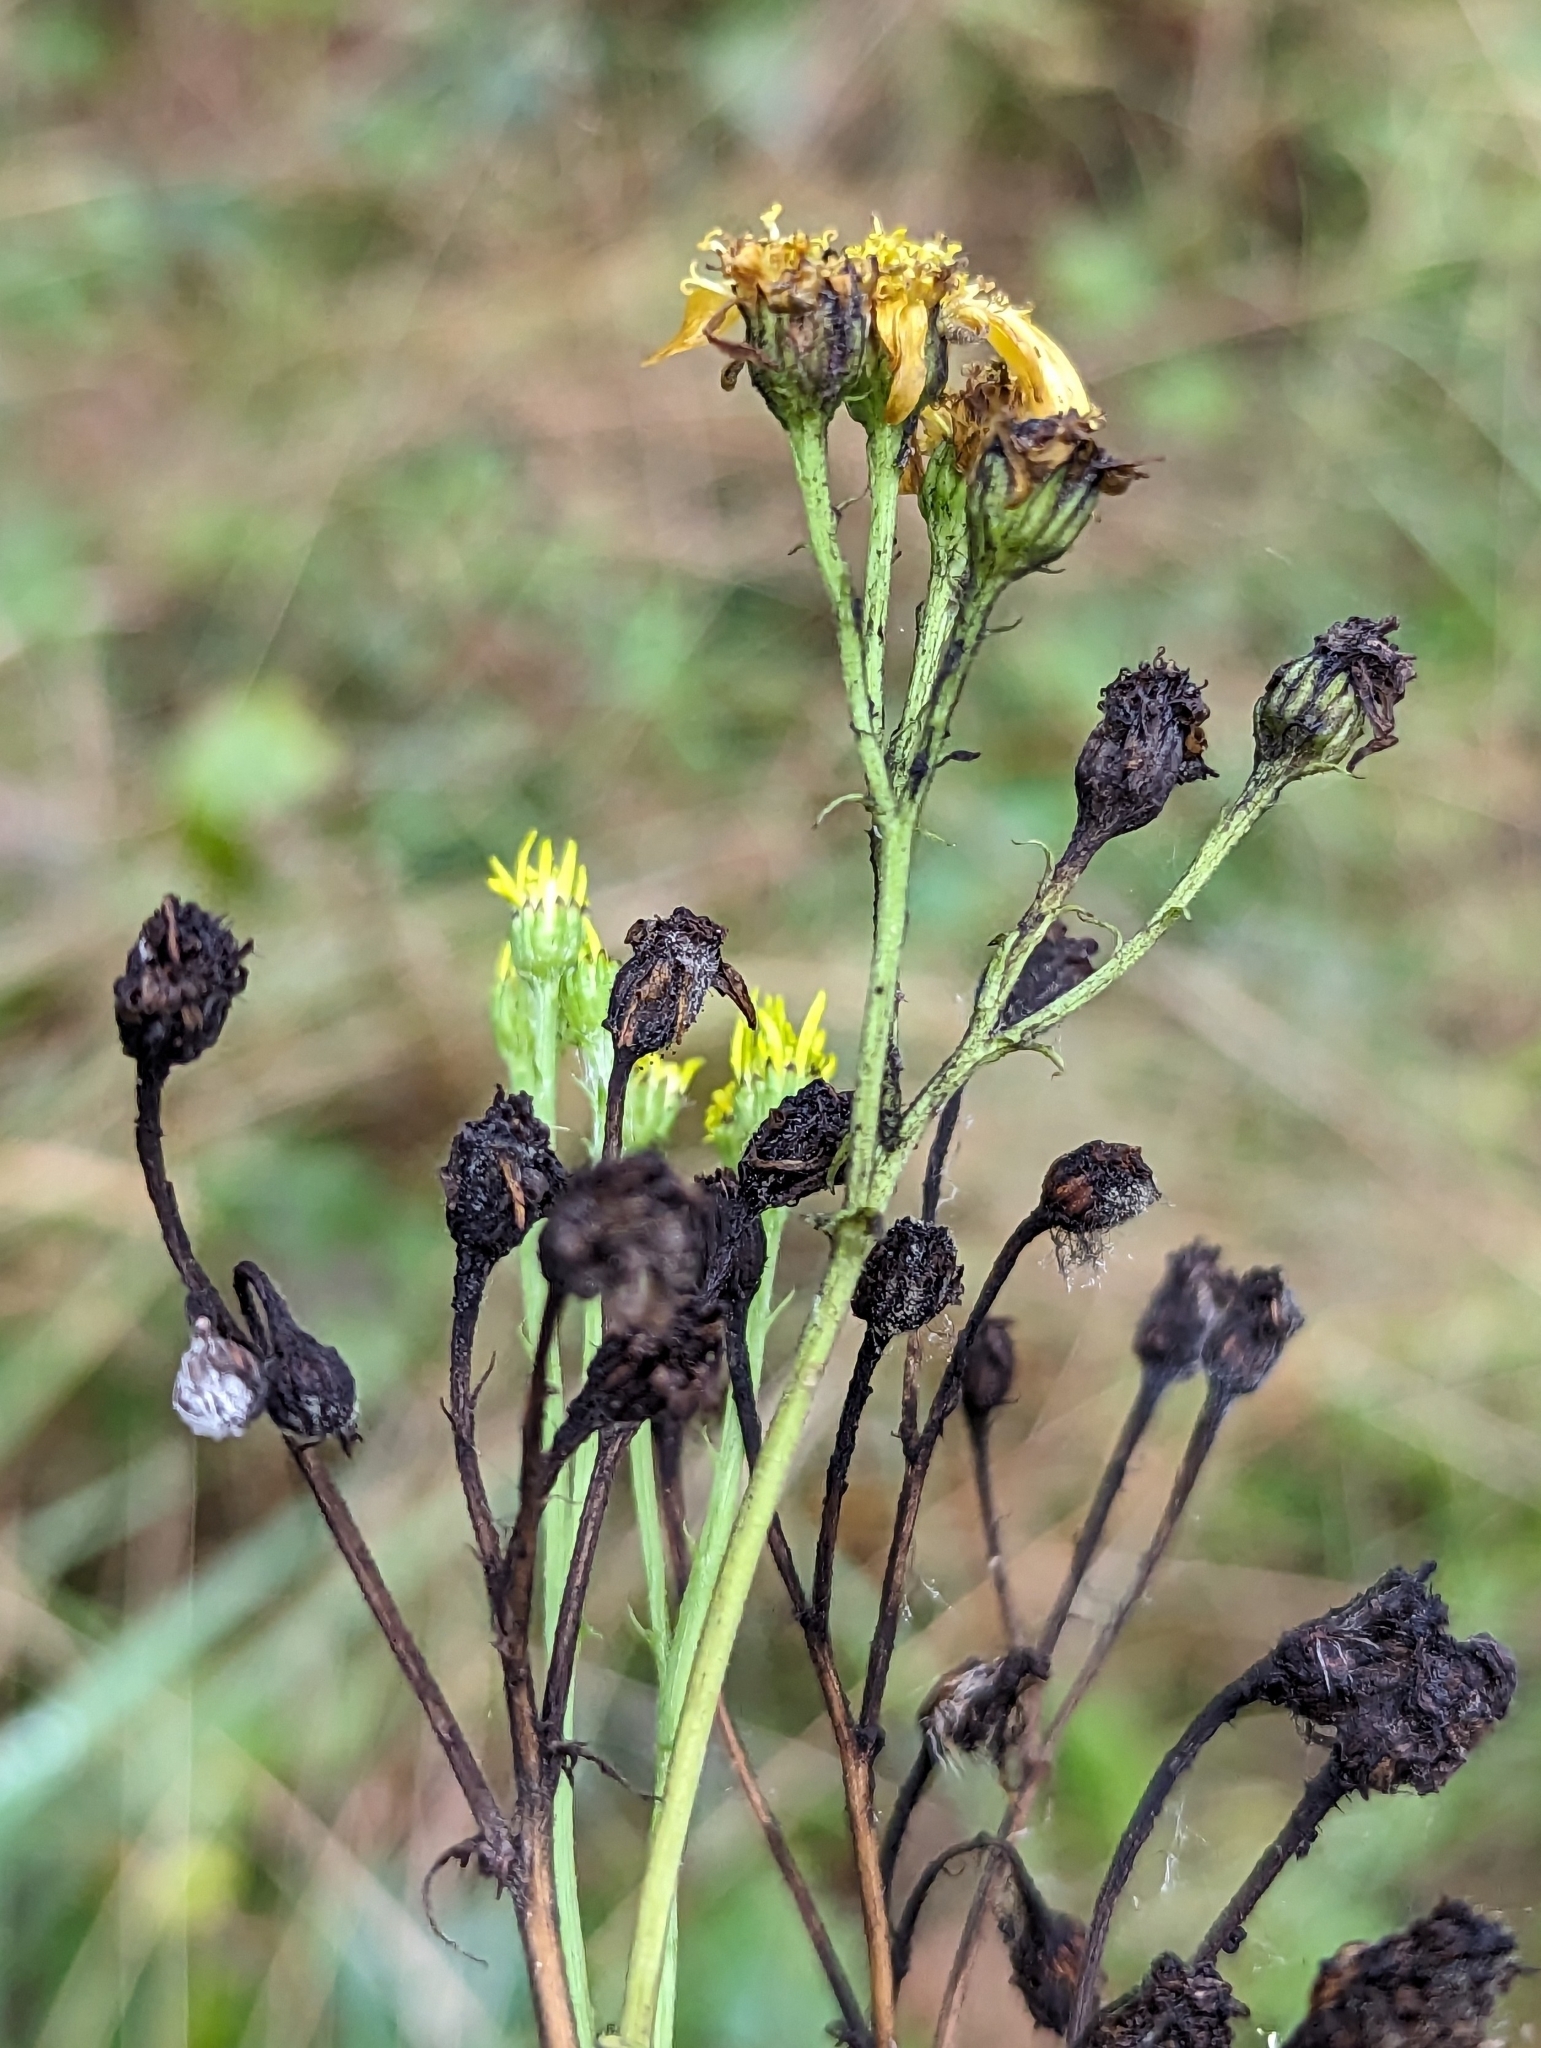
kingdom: Plantae
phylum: Tracheophyta
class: Magnoliopsida
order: Asterales
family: Asteraceae
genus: Jacobaea
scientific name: Jacobaea vulgaris
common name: Stinking willie
